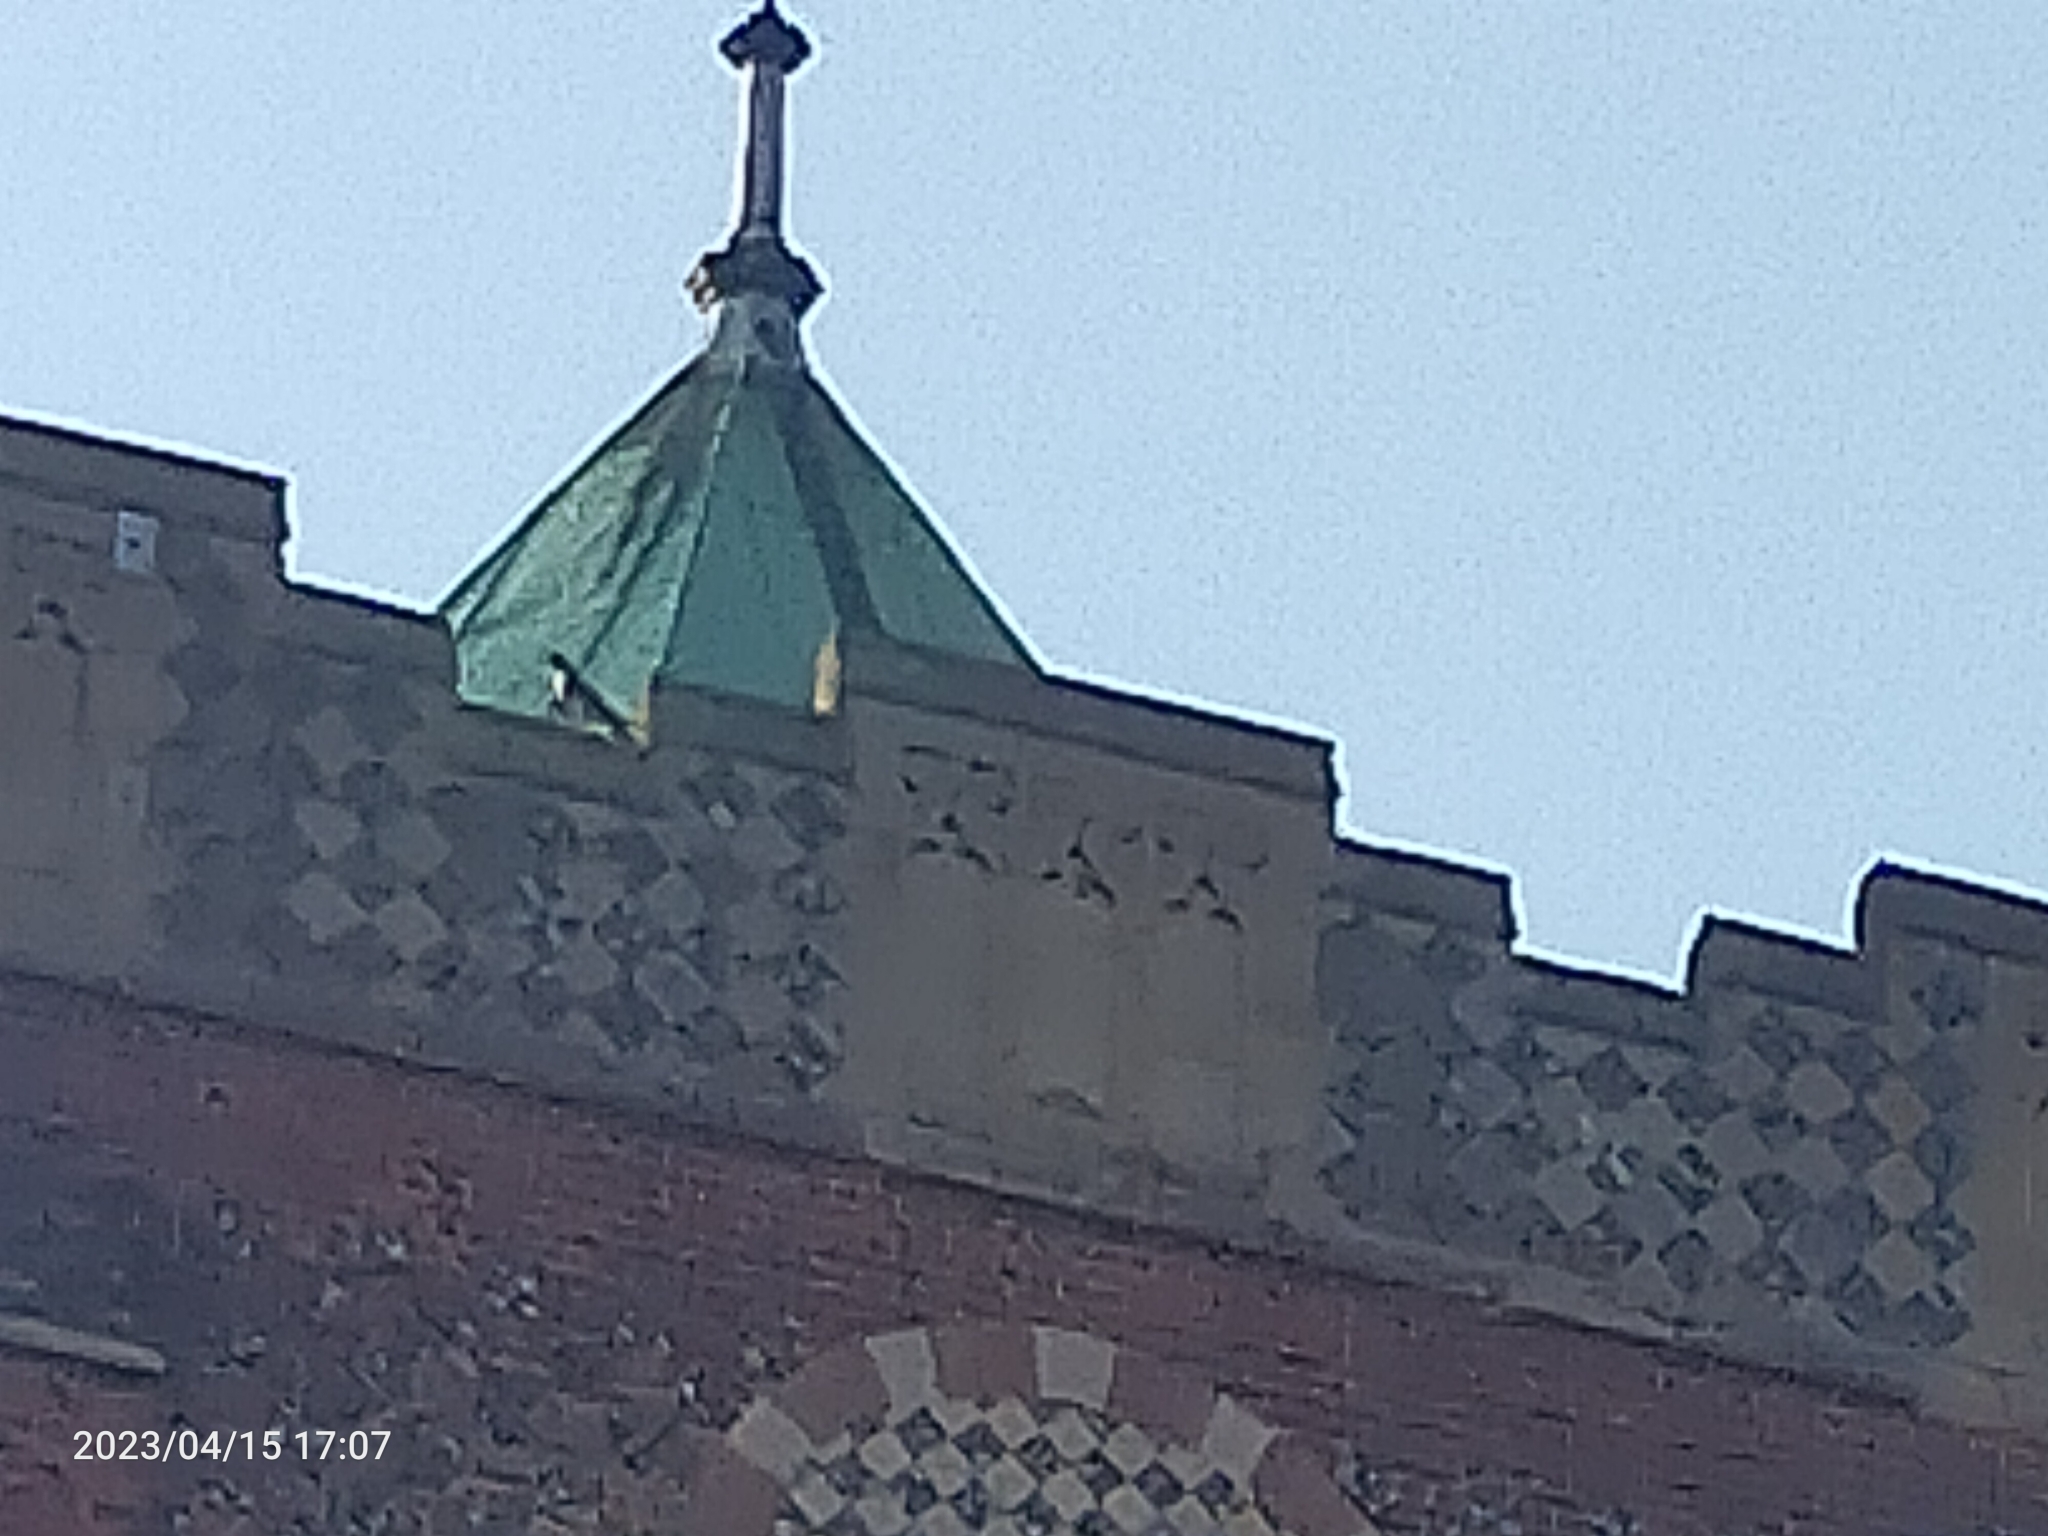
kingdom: Animalia
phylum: Chordata
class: Aves
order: Falconiformes
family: Falconidae
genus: Falco
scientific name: Falco peregrinus
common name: Peregrine falcon
